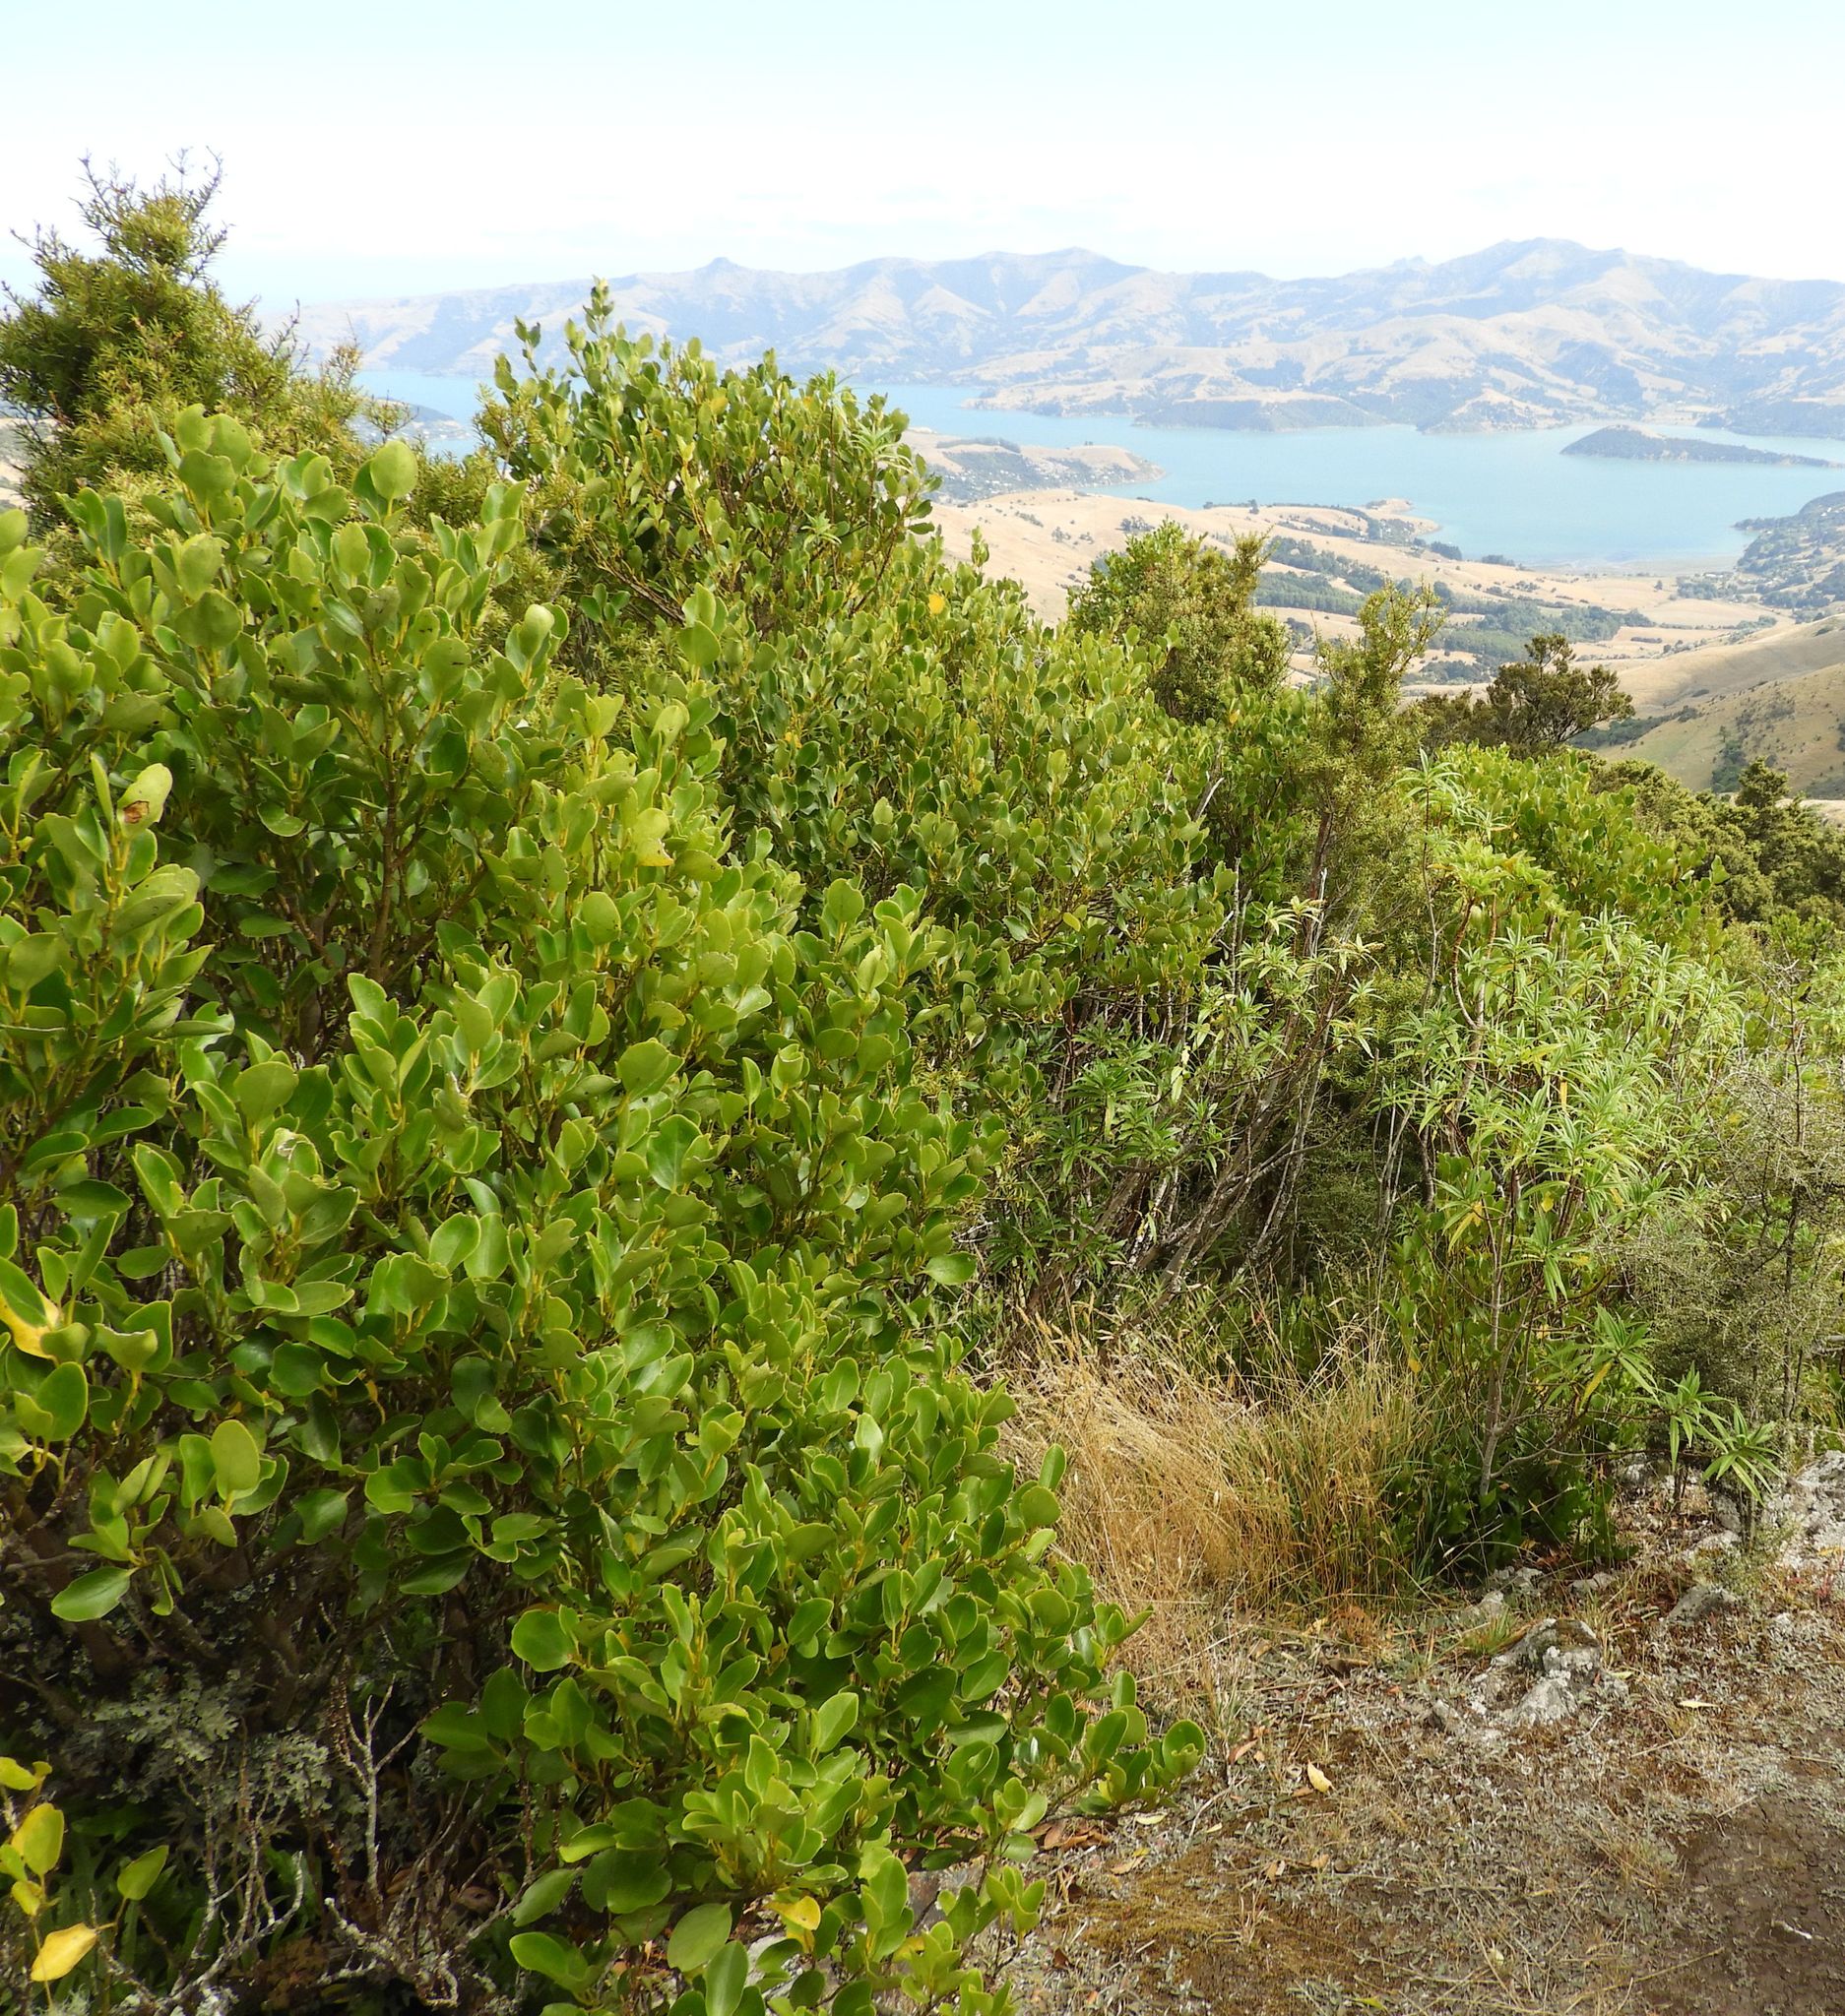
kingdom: Plantae
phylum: Tracheophyta
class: Magnoliopsida
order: Apiales
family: Griseliniaceae
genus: Griselinia
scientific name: Griselinia littoralis
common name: New zealand broadleaf
